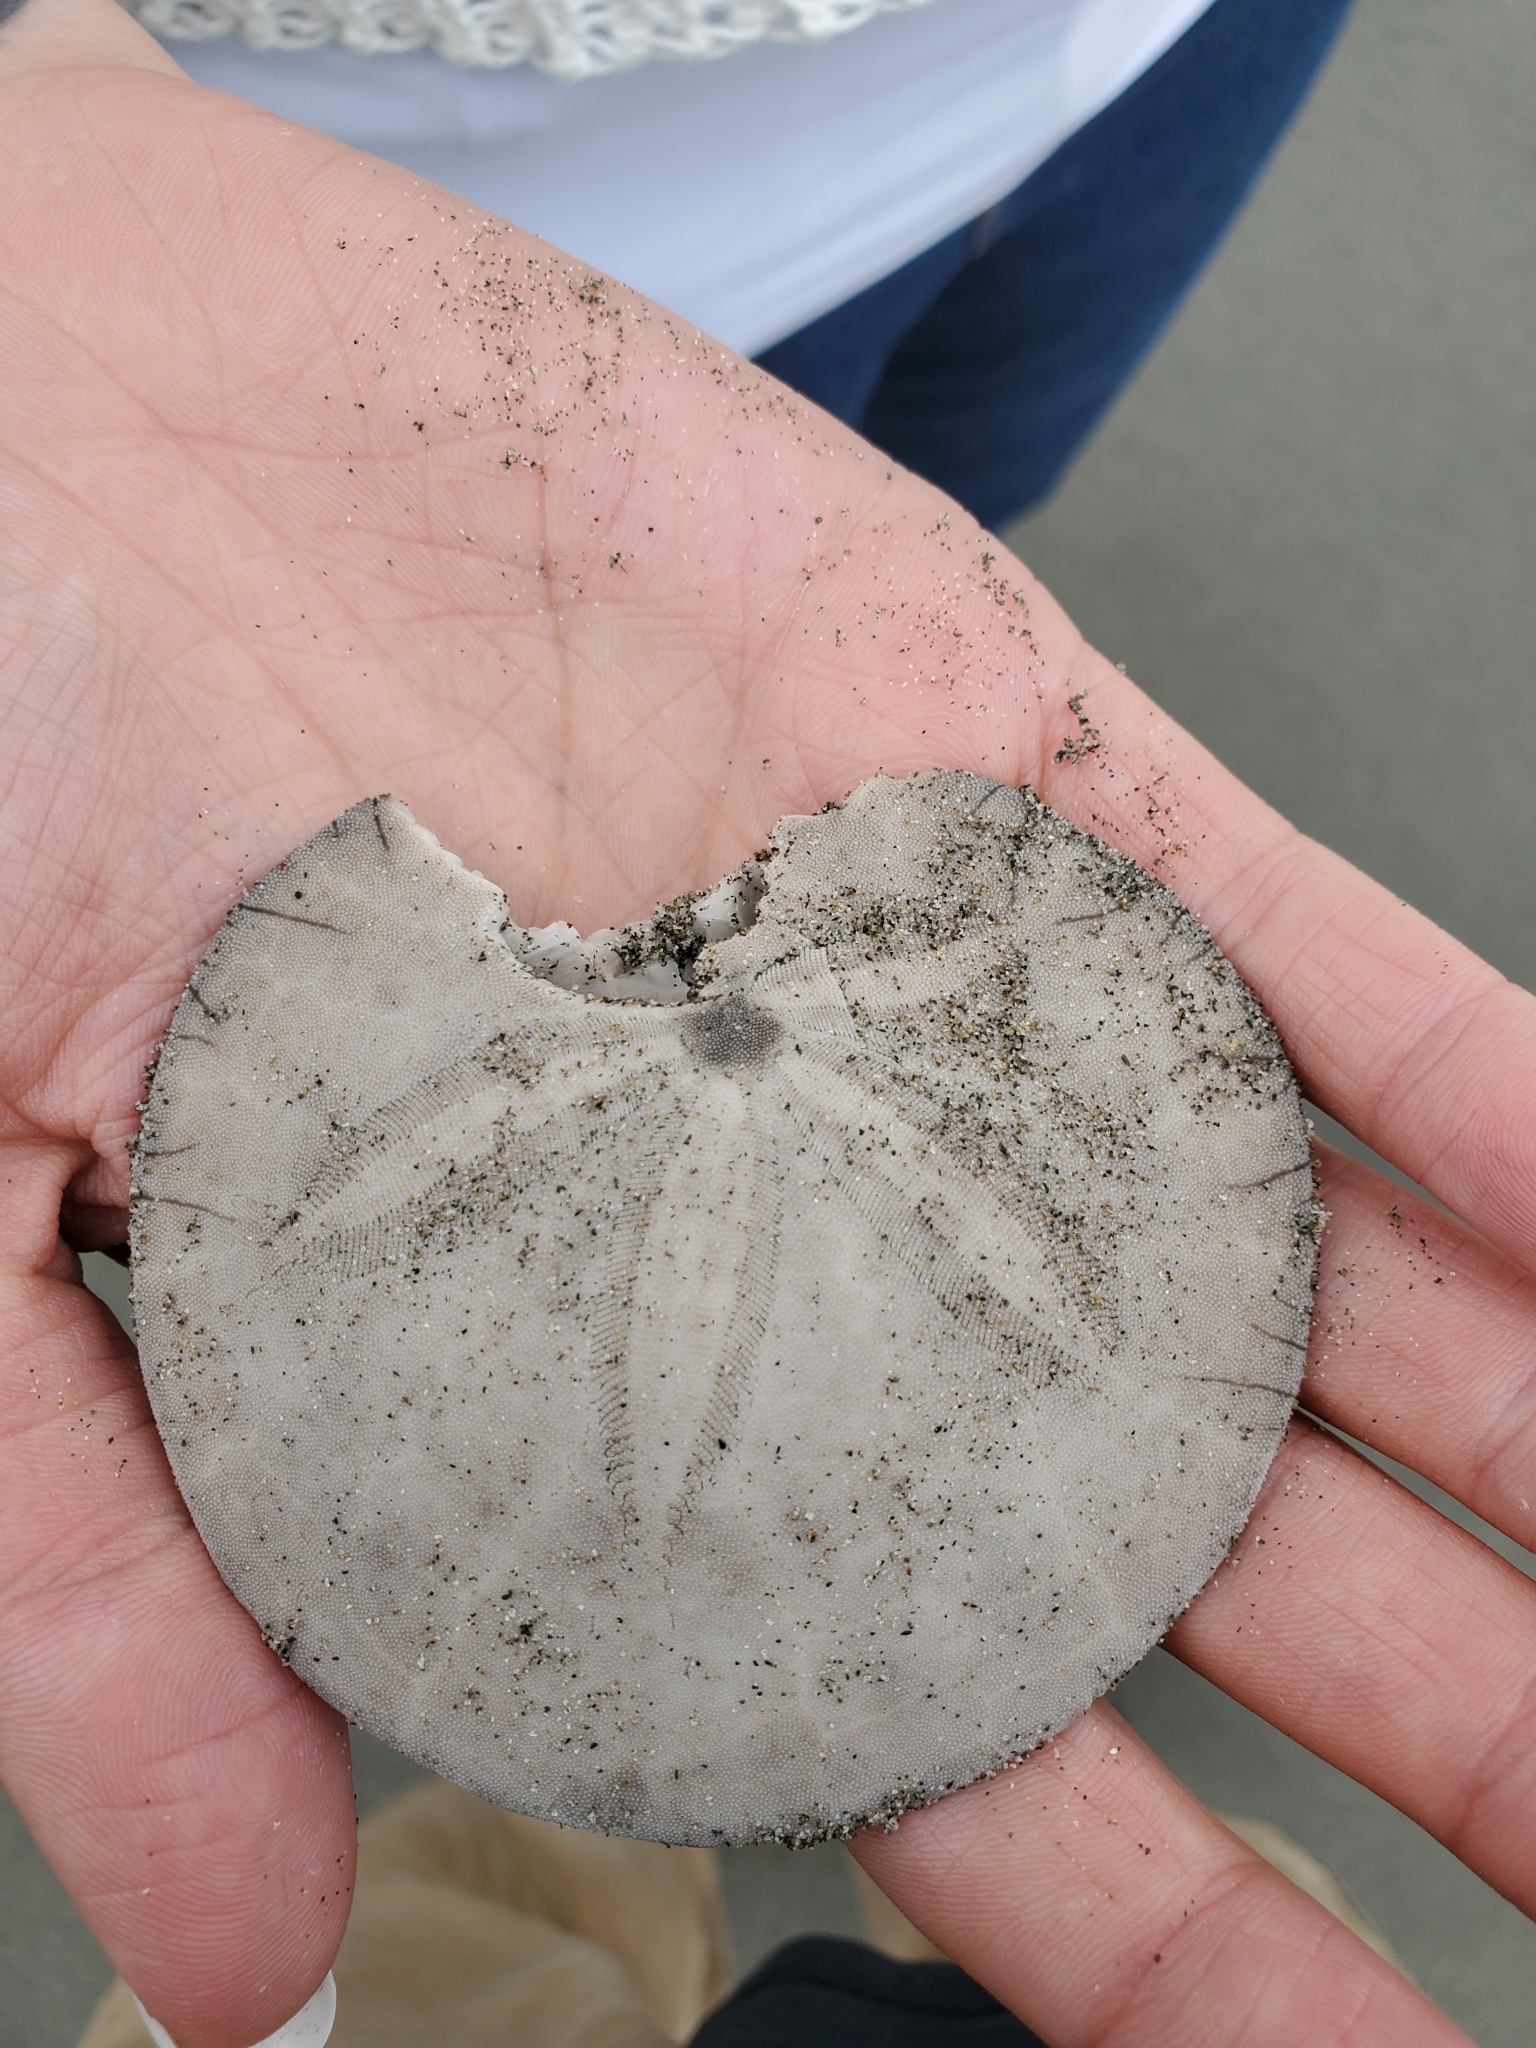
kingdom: Animalia
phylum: Echinodermata
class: Echinoidea
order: Echinolampadacea
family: Dendrasteridae
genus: Dendraster
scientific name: Dendraster excentricus
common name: Eccentric sand dollar sea urchin
